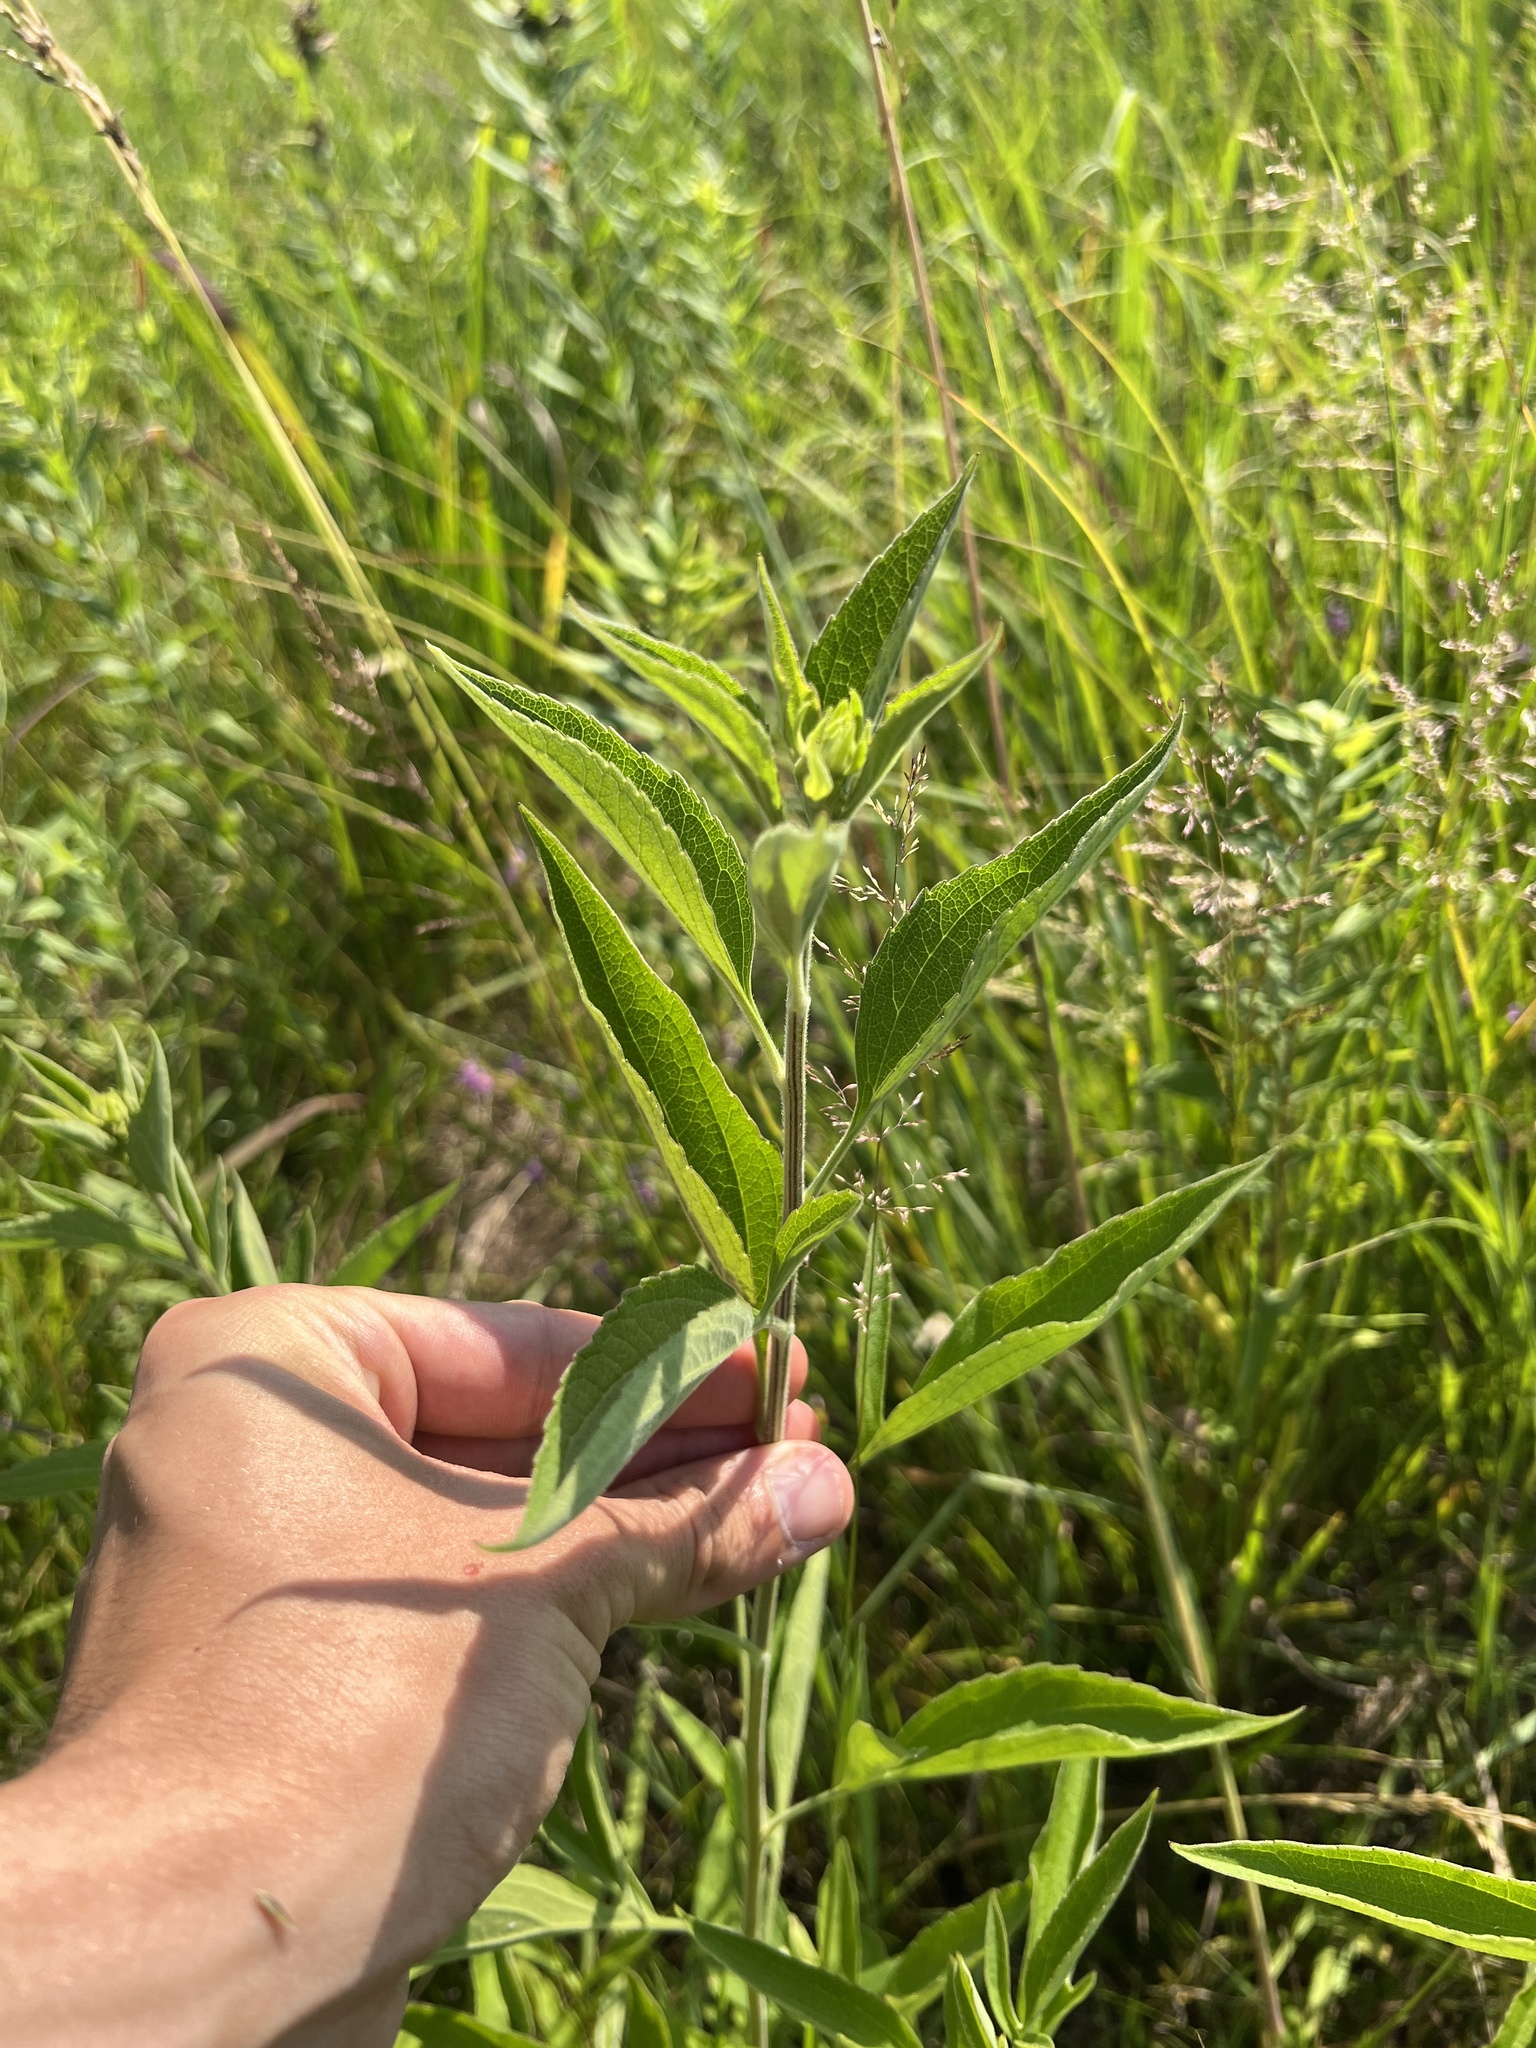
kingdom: Plantae
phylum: Tracheophyta
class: Magnoliopsida
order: Asterales
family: Asteraceae
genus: Rudbeckia
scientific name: Rudbeckia subtomentosa
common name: Sweet coneflower
